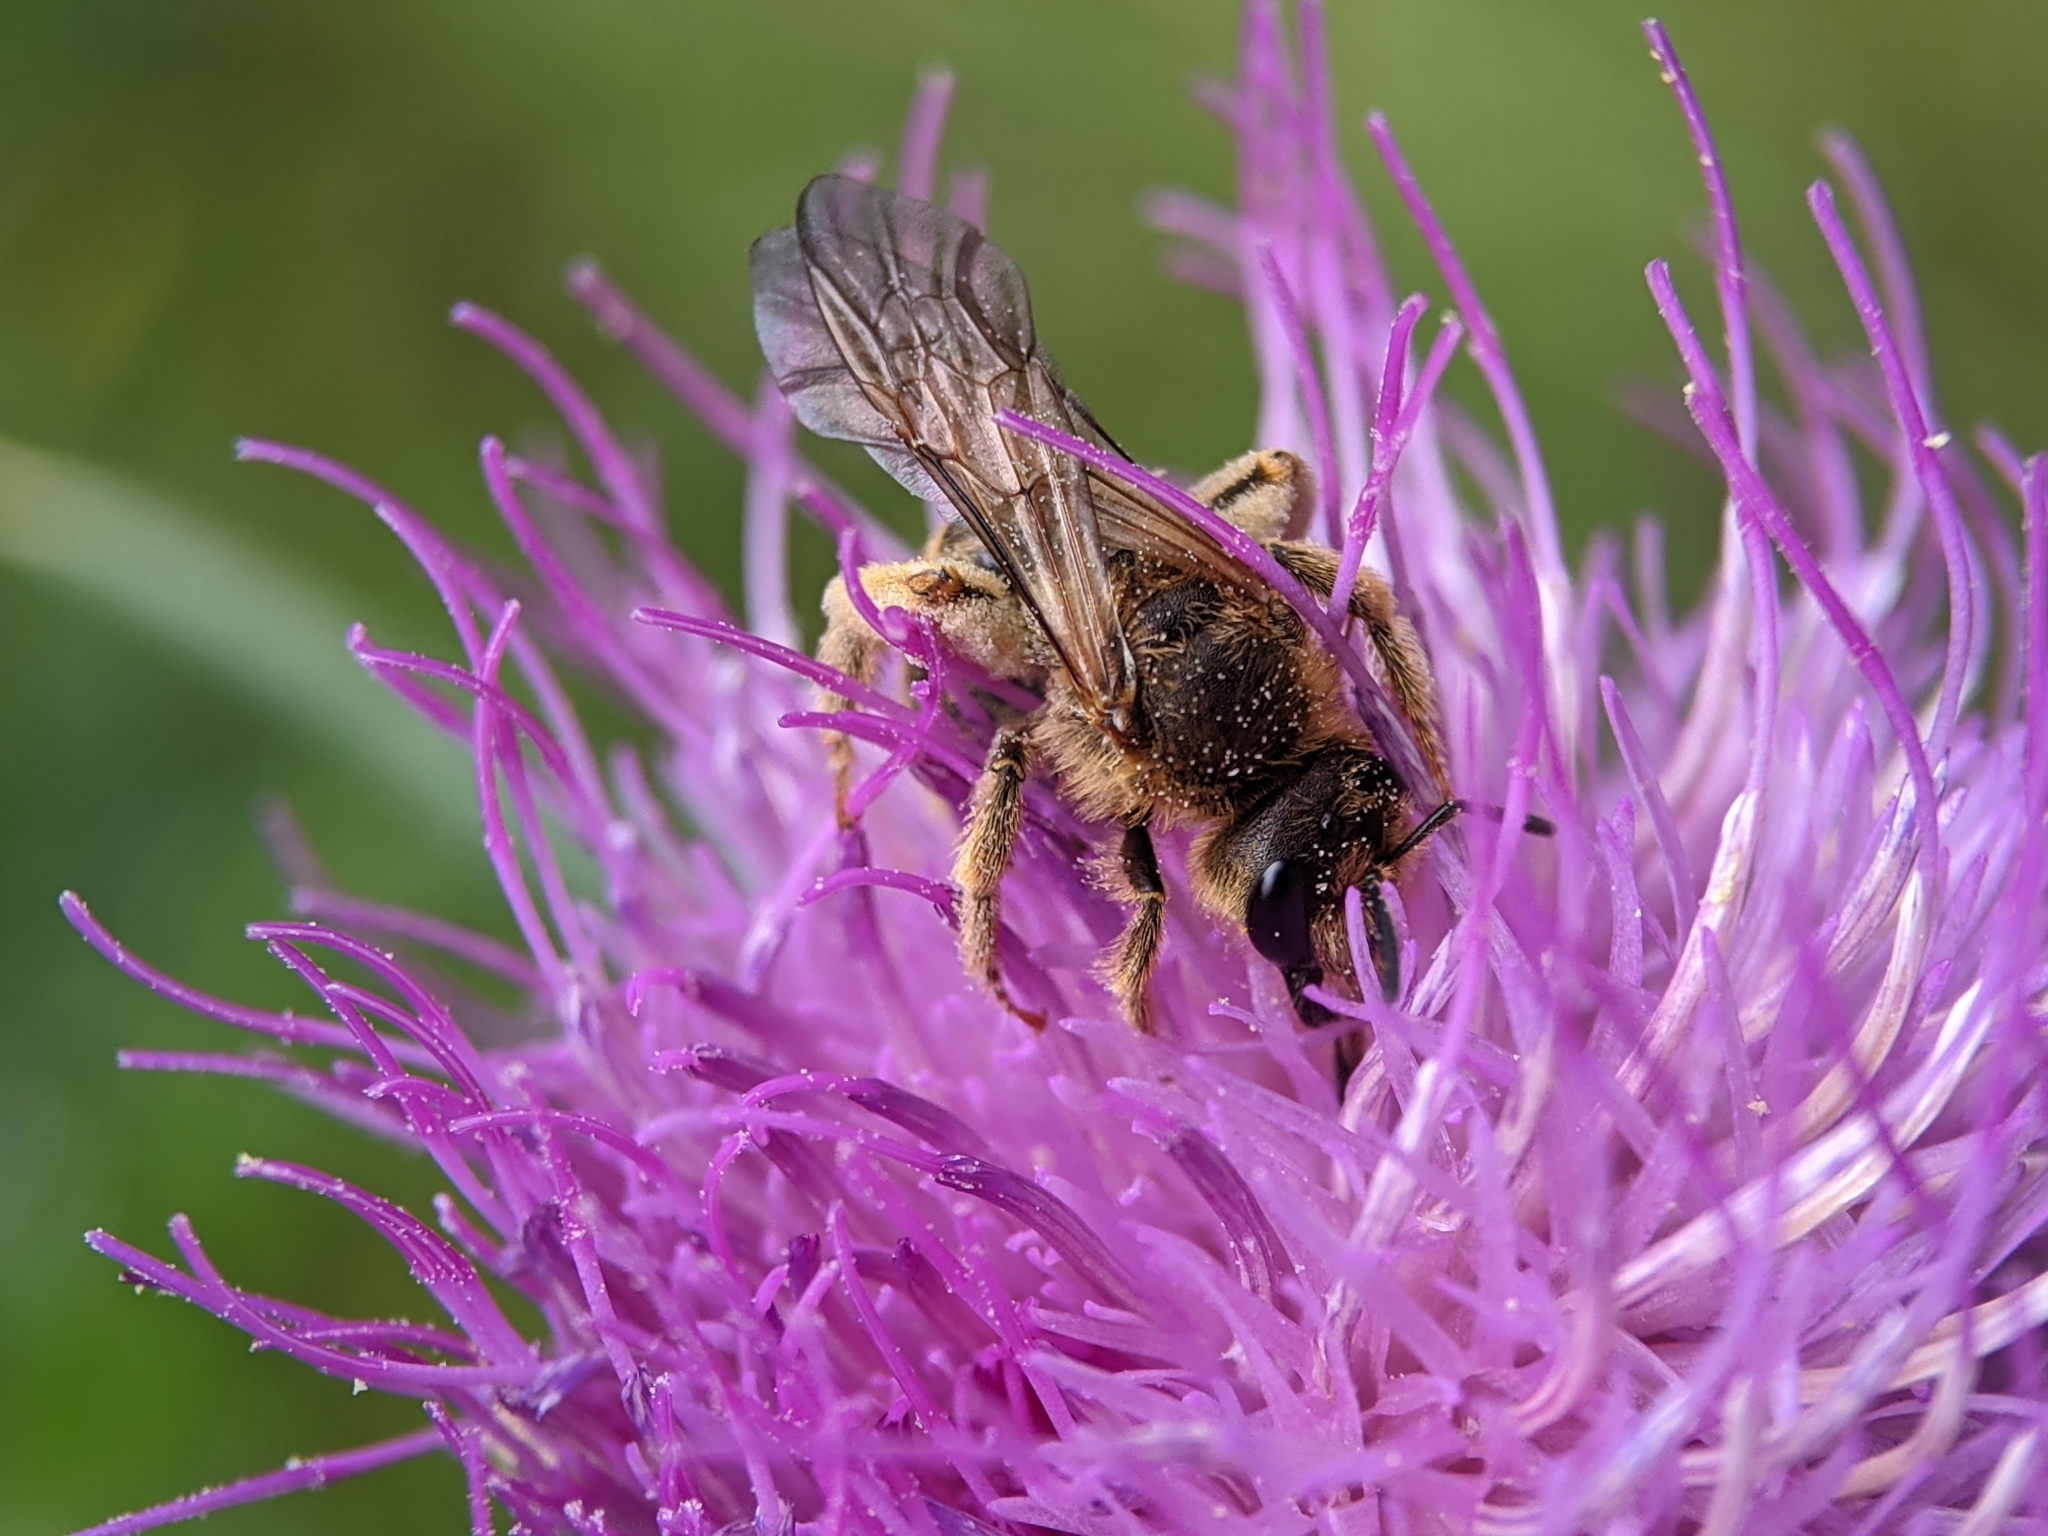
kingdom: Animalia
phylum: Arthropoda
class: Insecta
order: Hymenoptera
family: Halictidae
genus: Halictus
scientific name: Halictus scabiosae
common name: Great banded furrow bee
